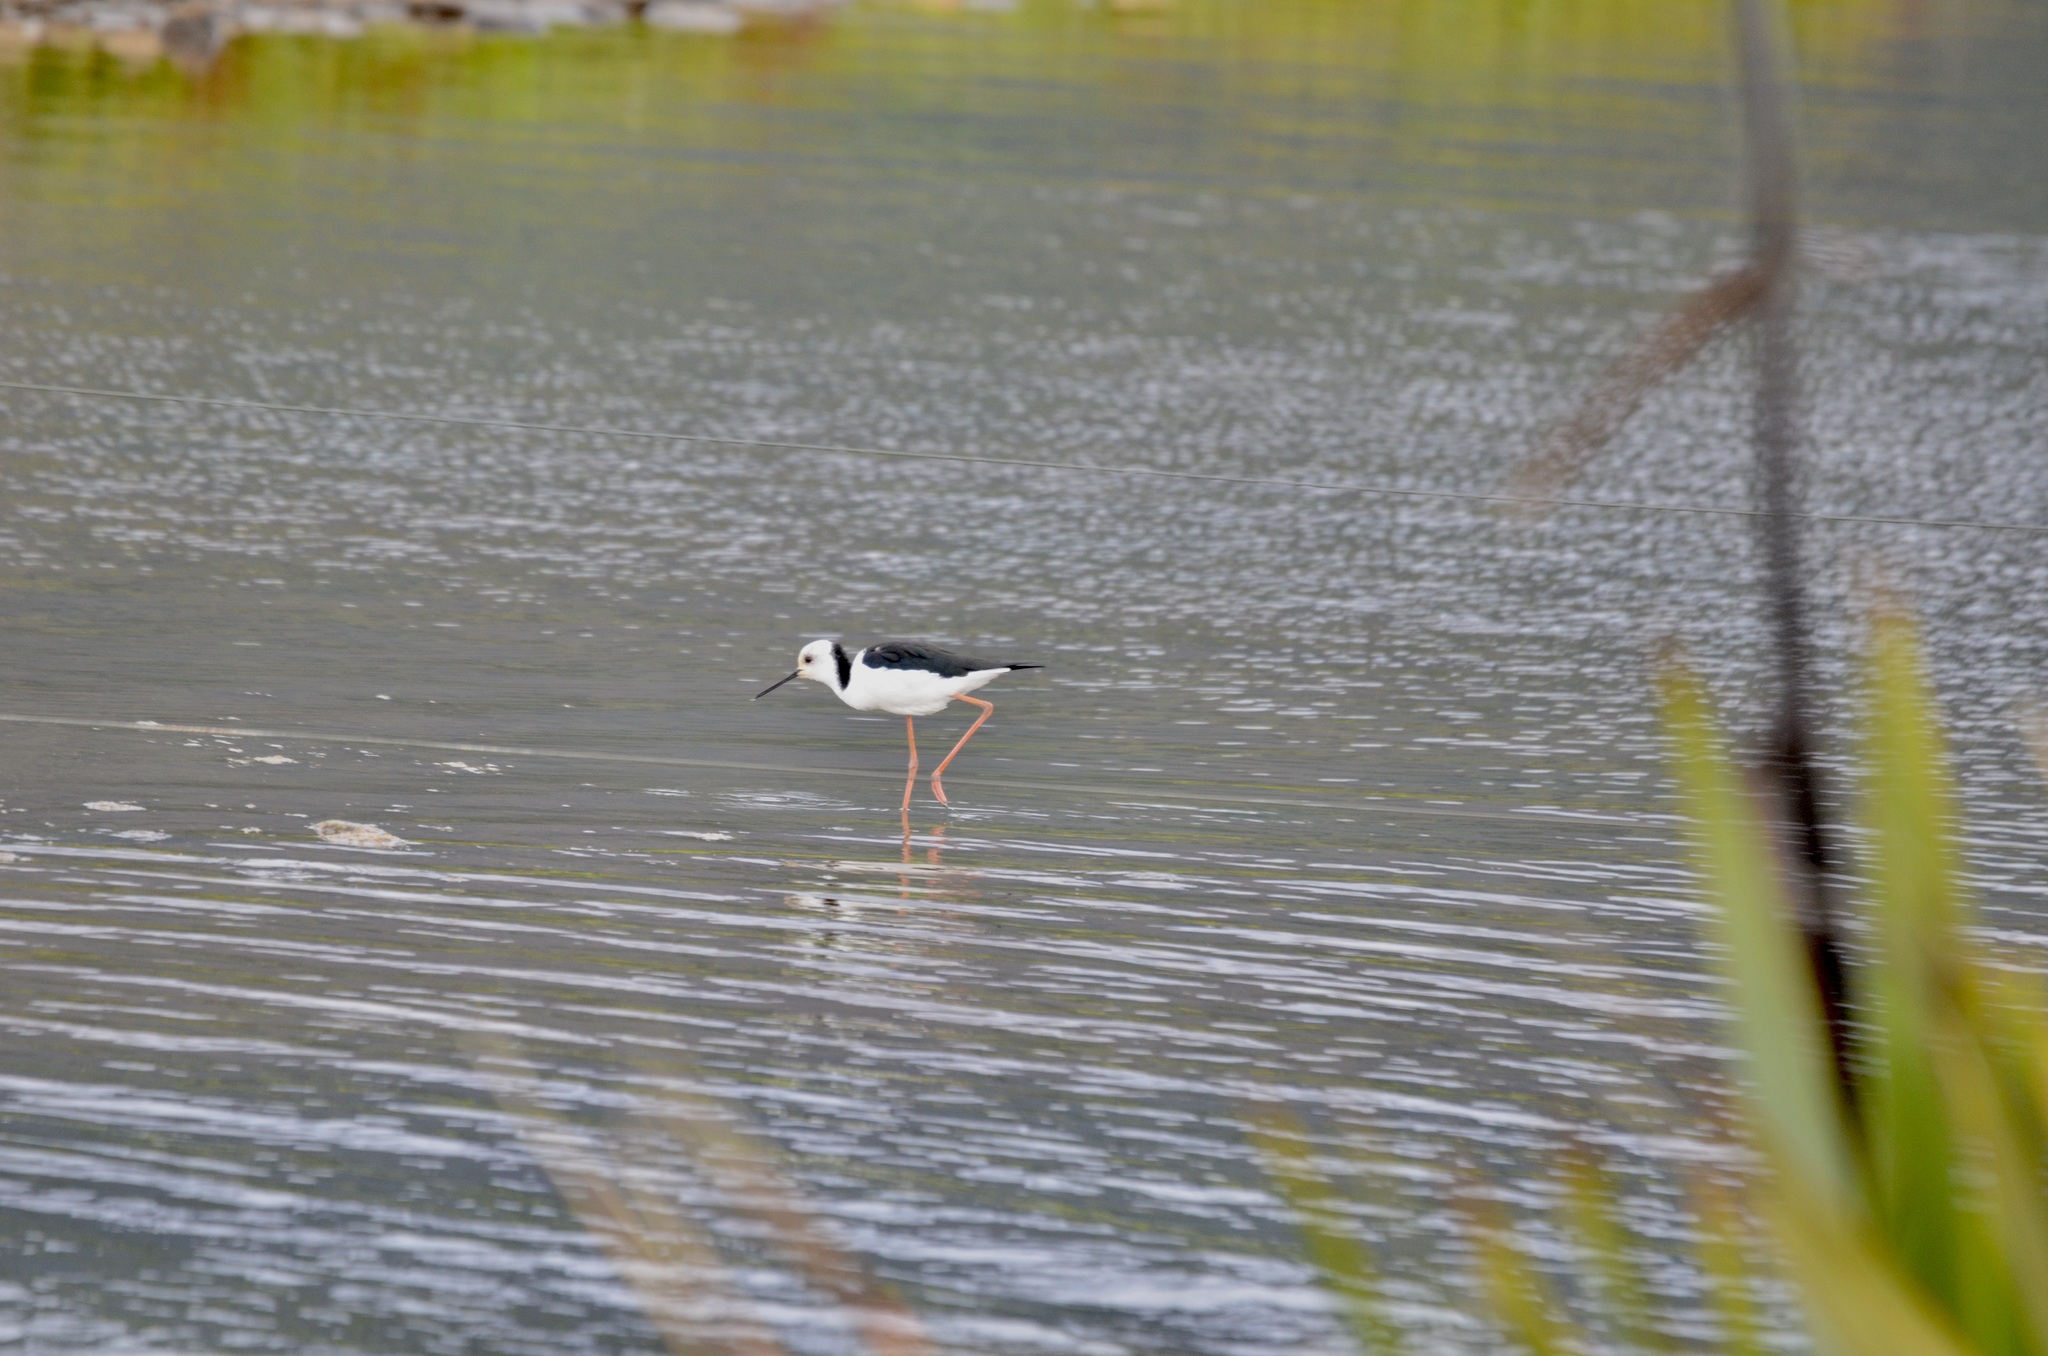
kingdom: Animalia
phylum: Chordata
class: Aves
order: Charadriiformes
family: Recurvirostridae
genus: Himantopus
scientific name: Himantopus leucocephalus
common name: White-headed stilt
